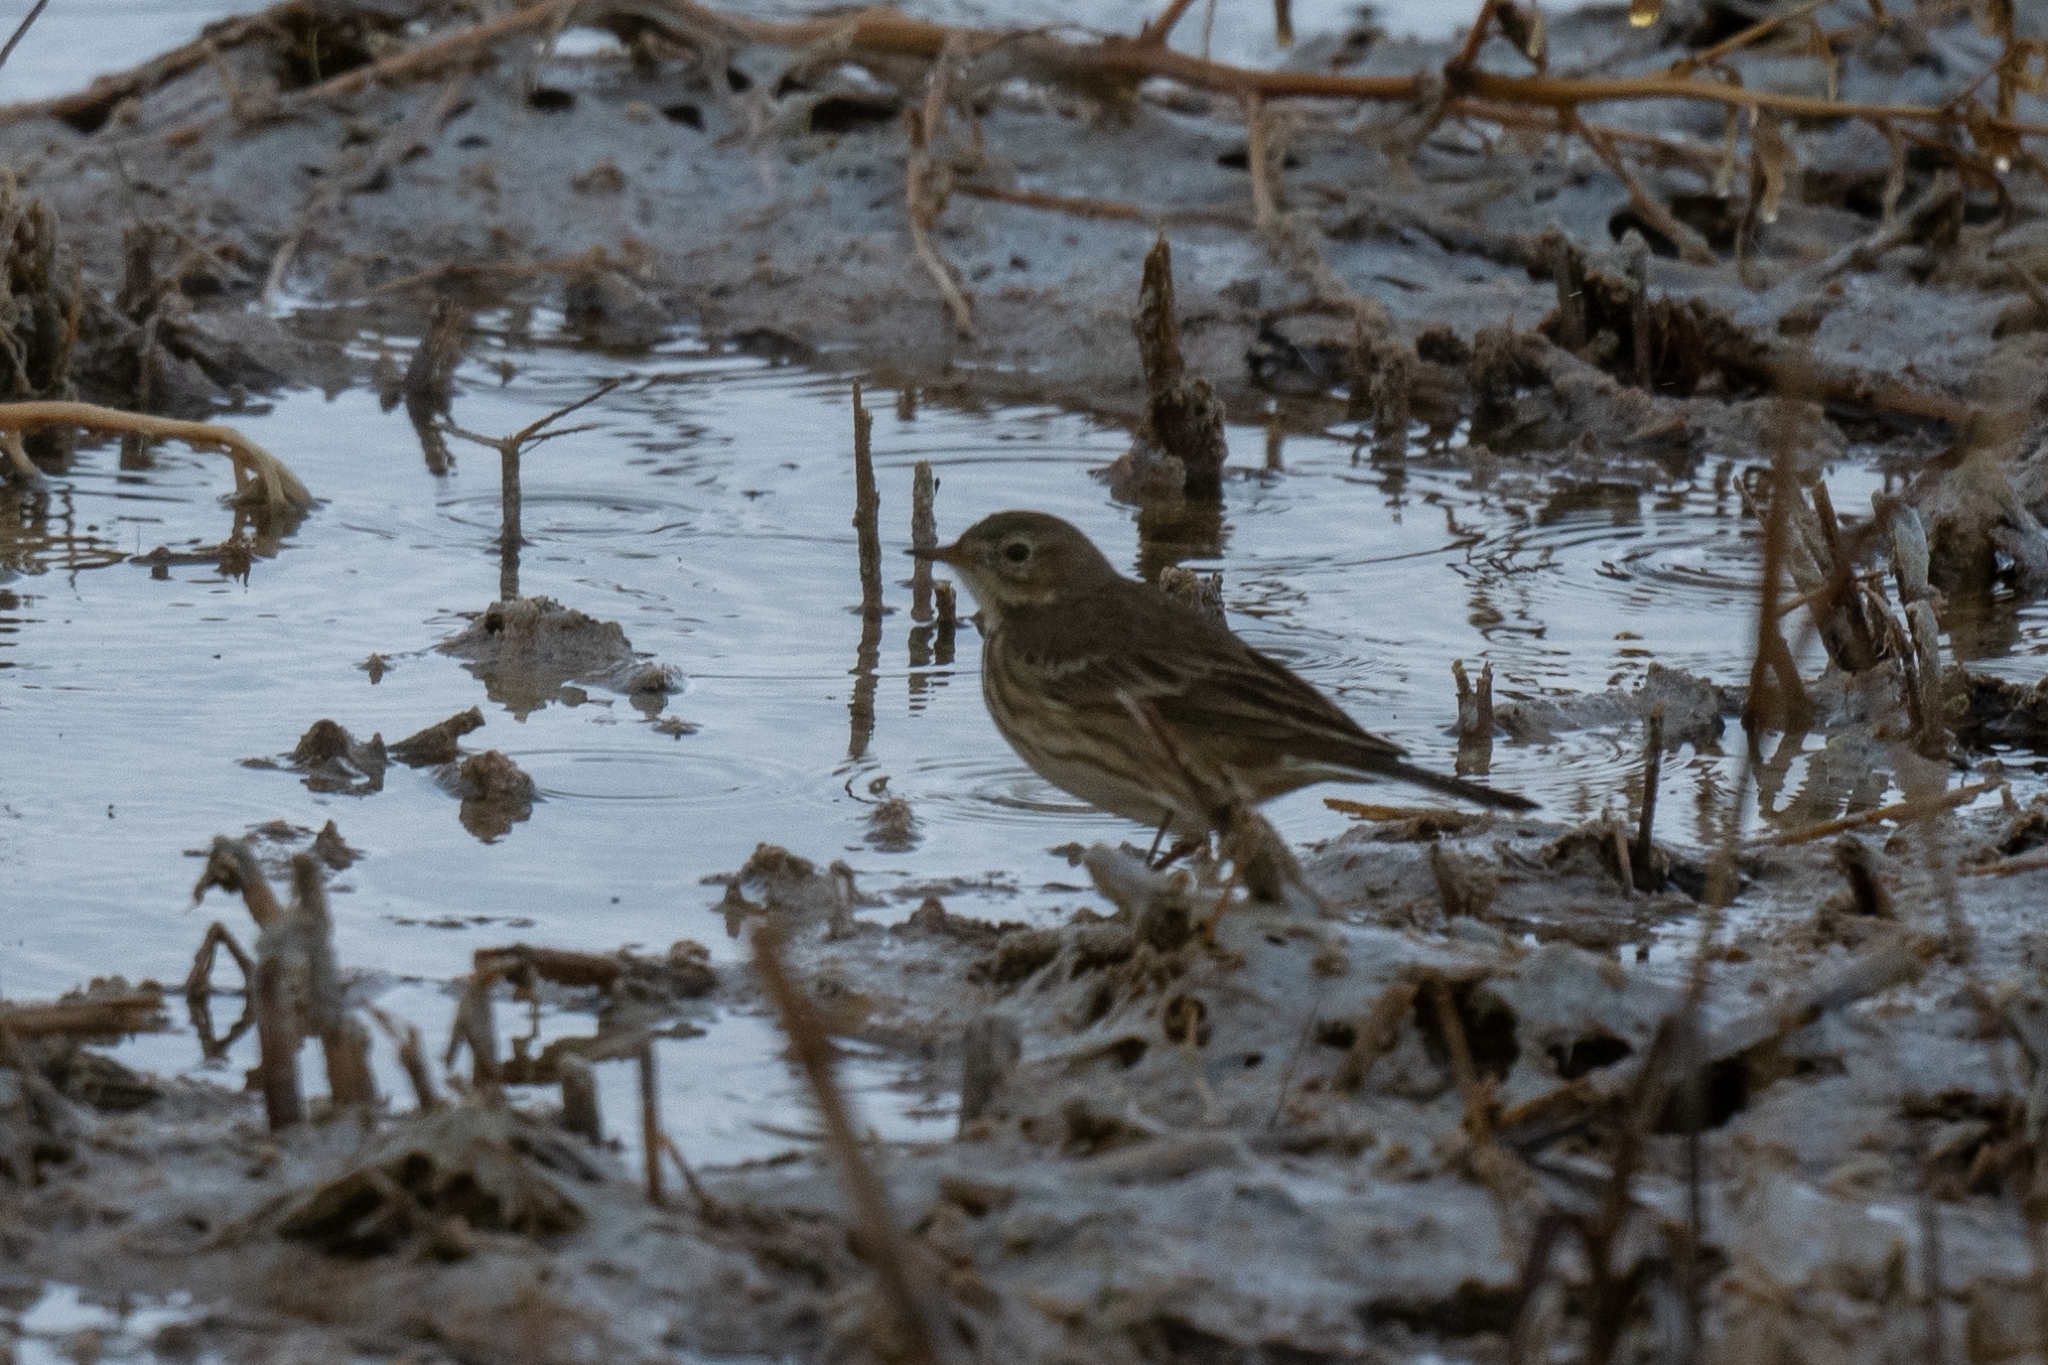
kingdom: Animalia
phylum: Chordata
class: Aves
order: Passeriformes
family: Motacillidae
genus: Anthus
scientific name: Anthus rubescens
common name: Buff-bellied pipit
